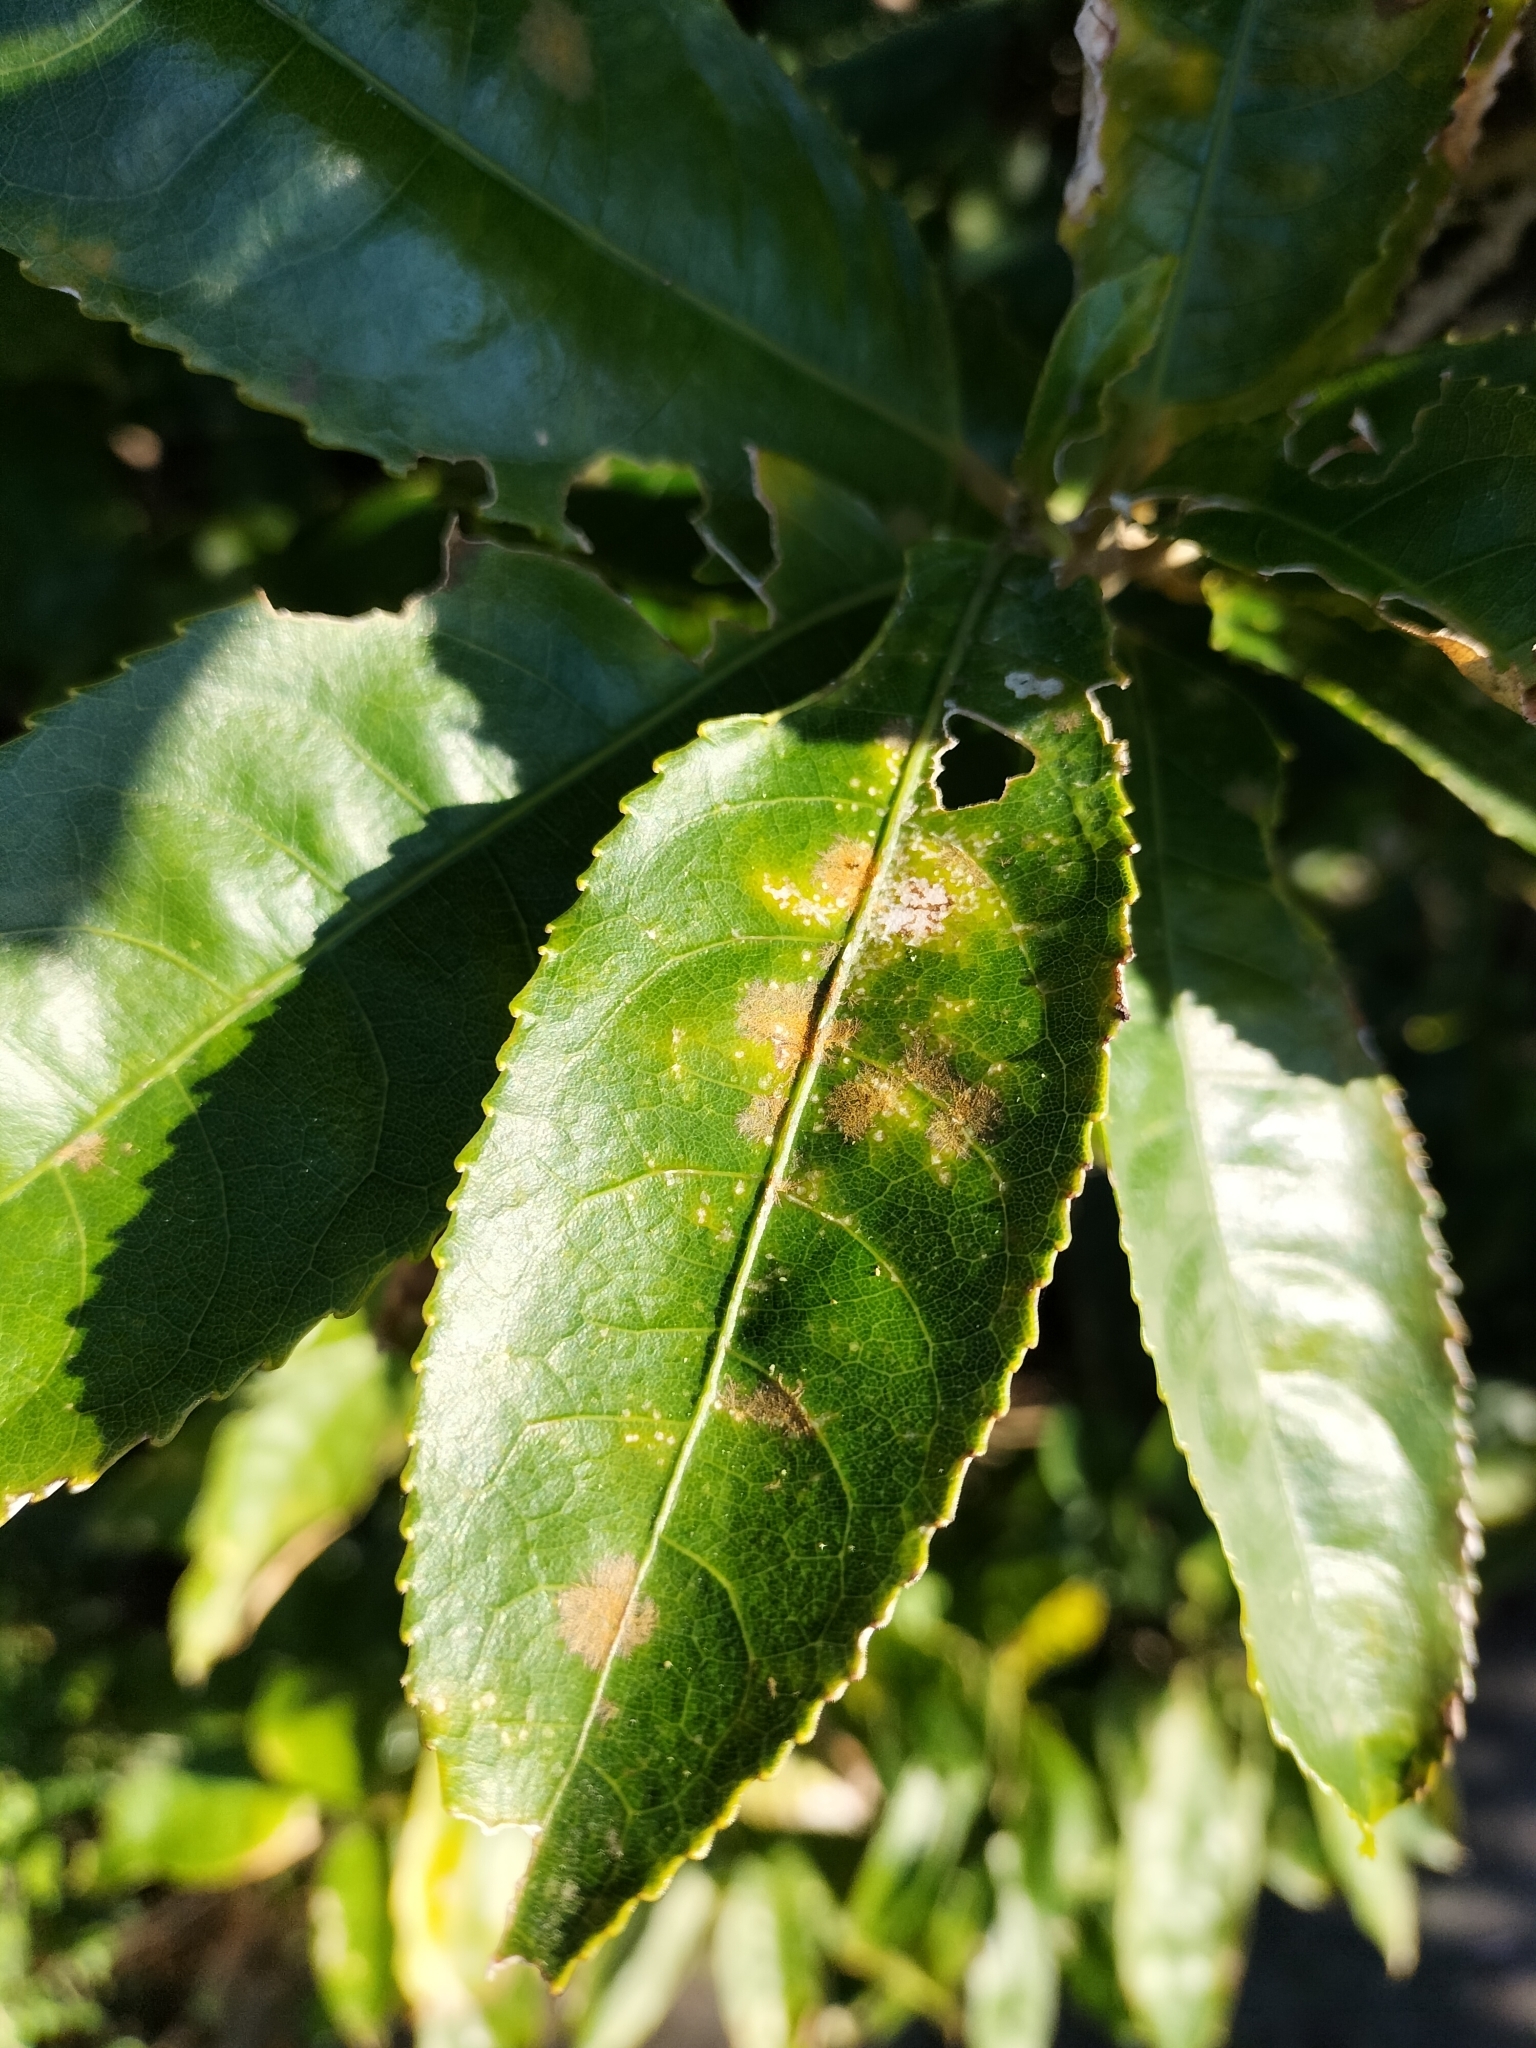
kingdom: Plantae
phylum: Chlorophyta
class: Ulvophyceae
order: Trentepohliales
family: Trentepohliaceae
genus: Cephaleuros
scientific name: Cephaleuros
